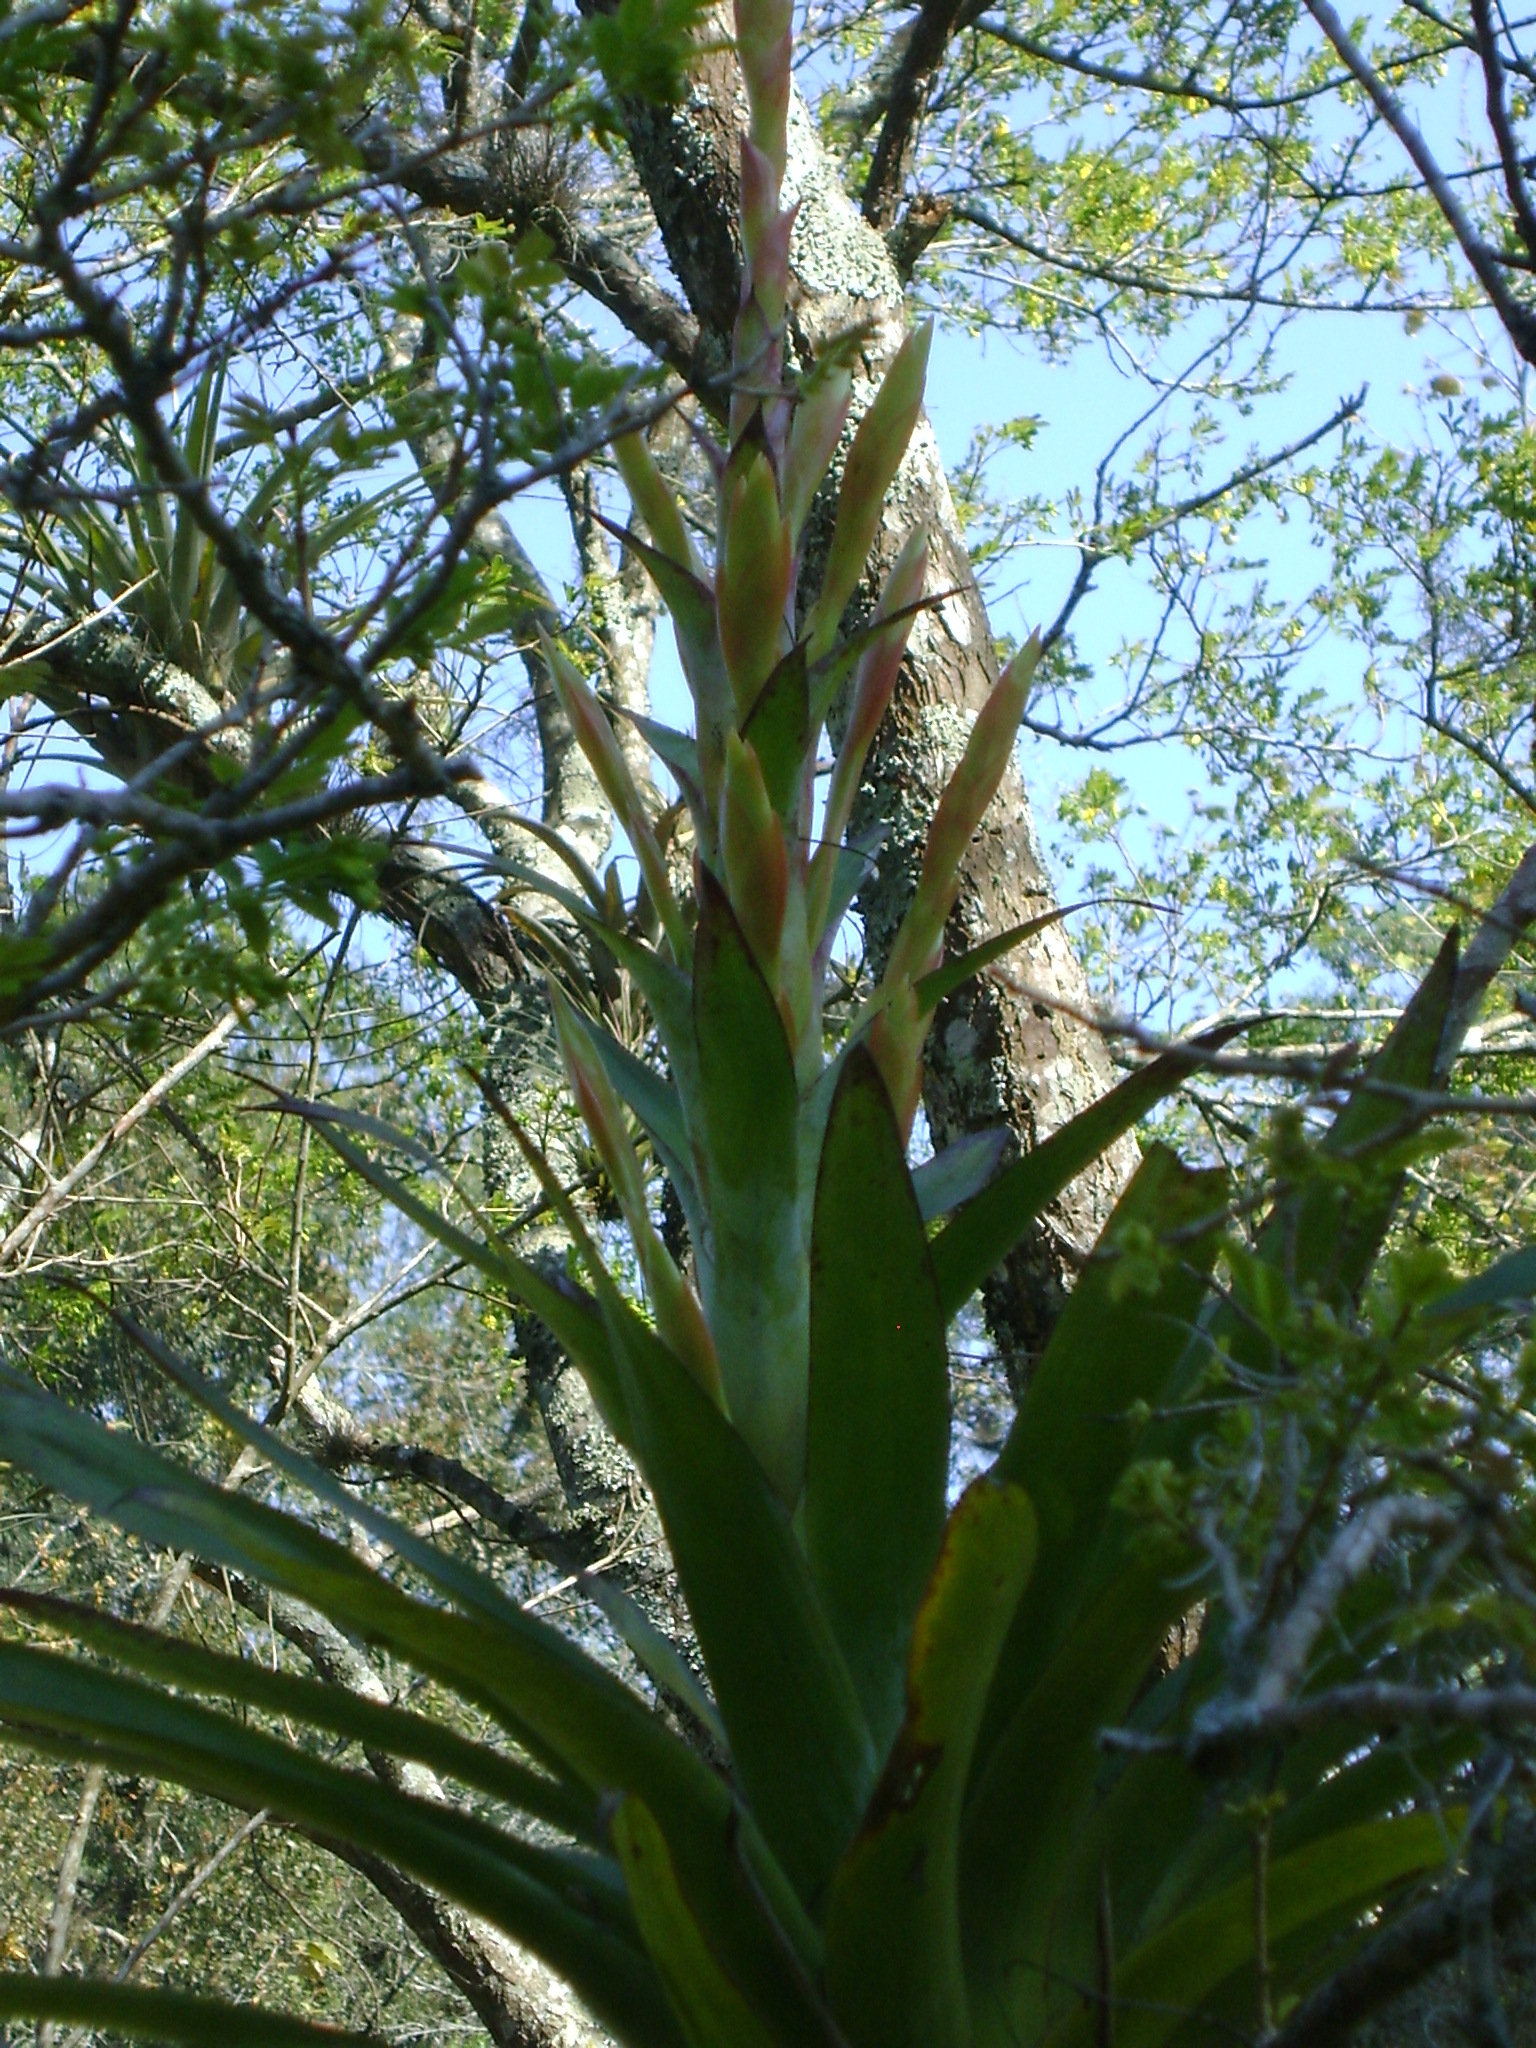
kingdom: Plantae
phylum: Tracheophyta
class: Liliopsida
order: Poales
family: Bromeliaceae
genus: Tillandsia
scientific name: Tillandsia deppeana
